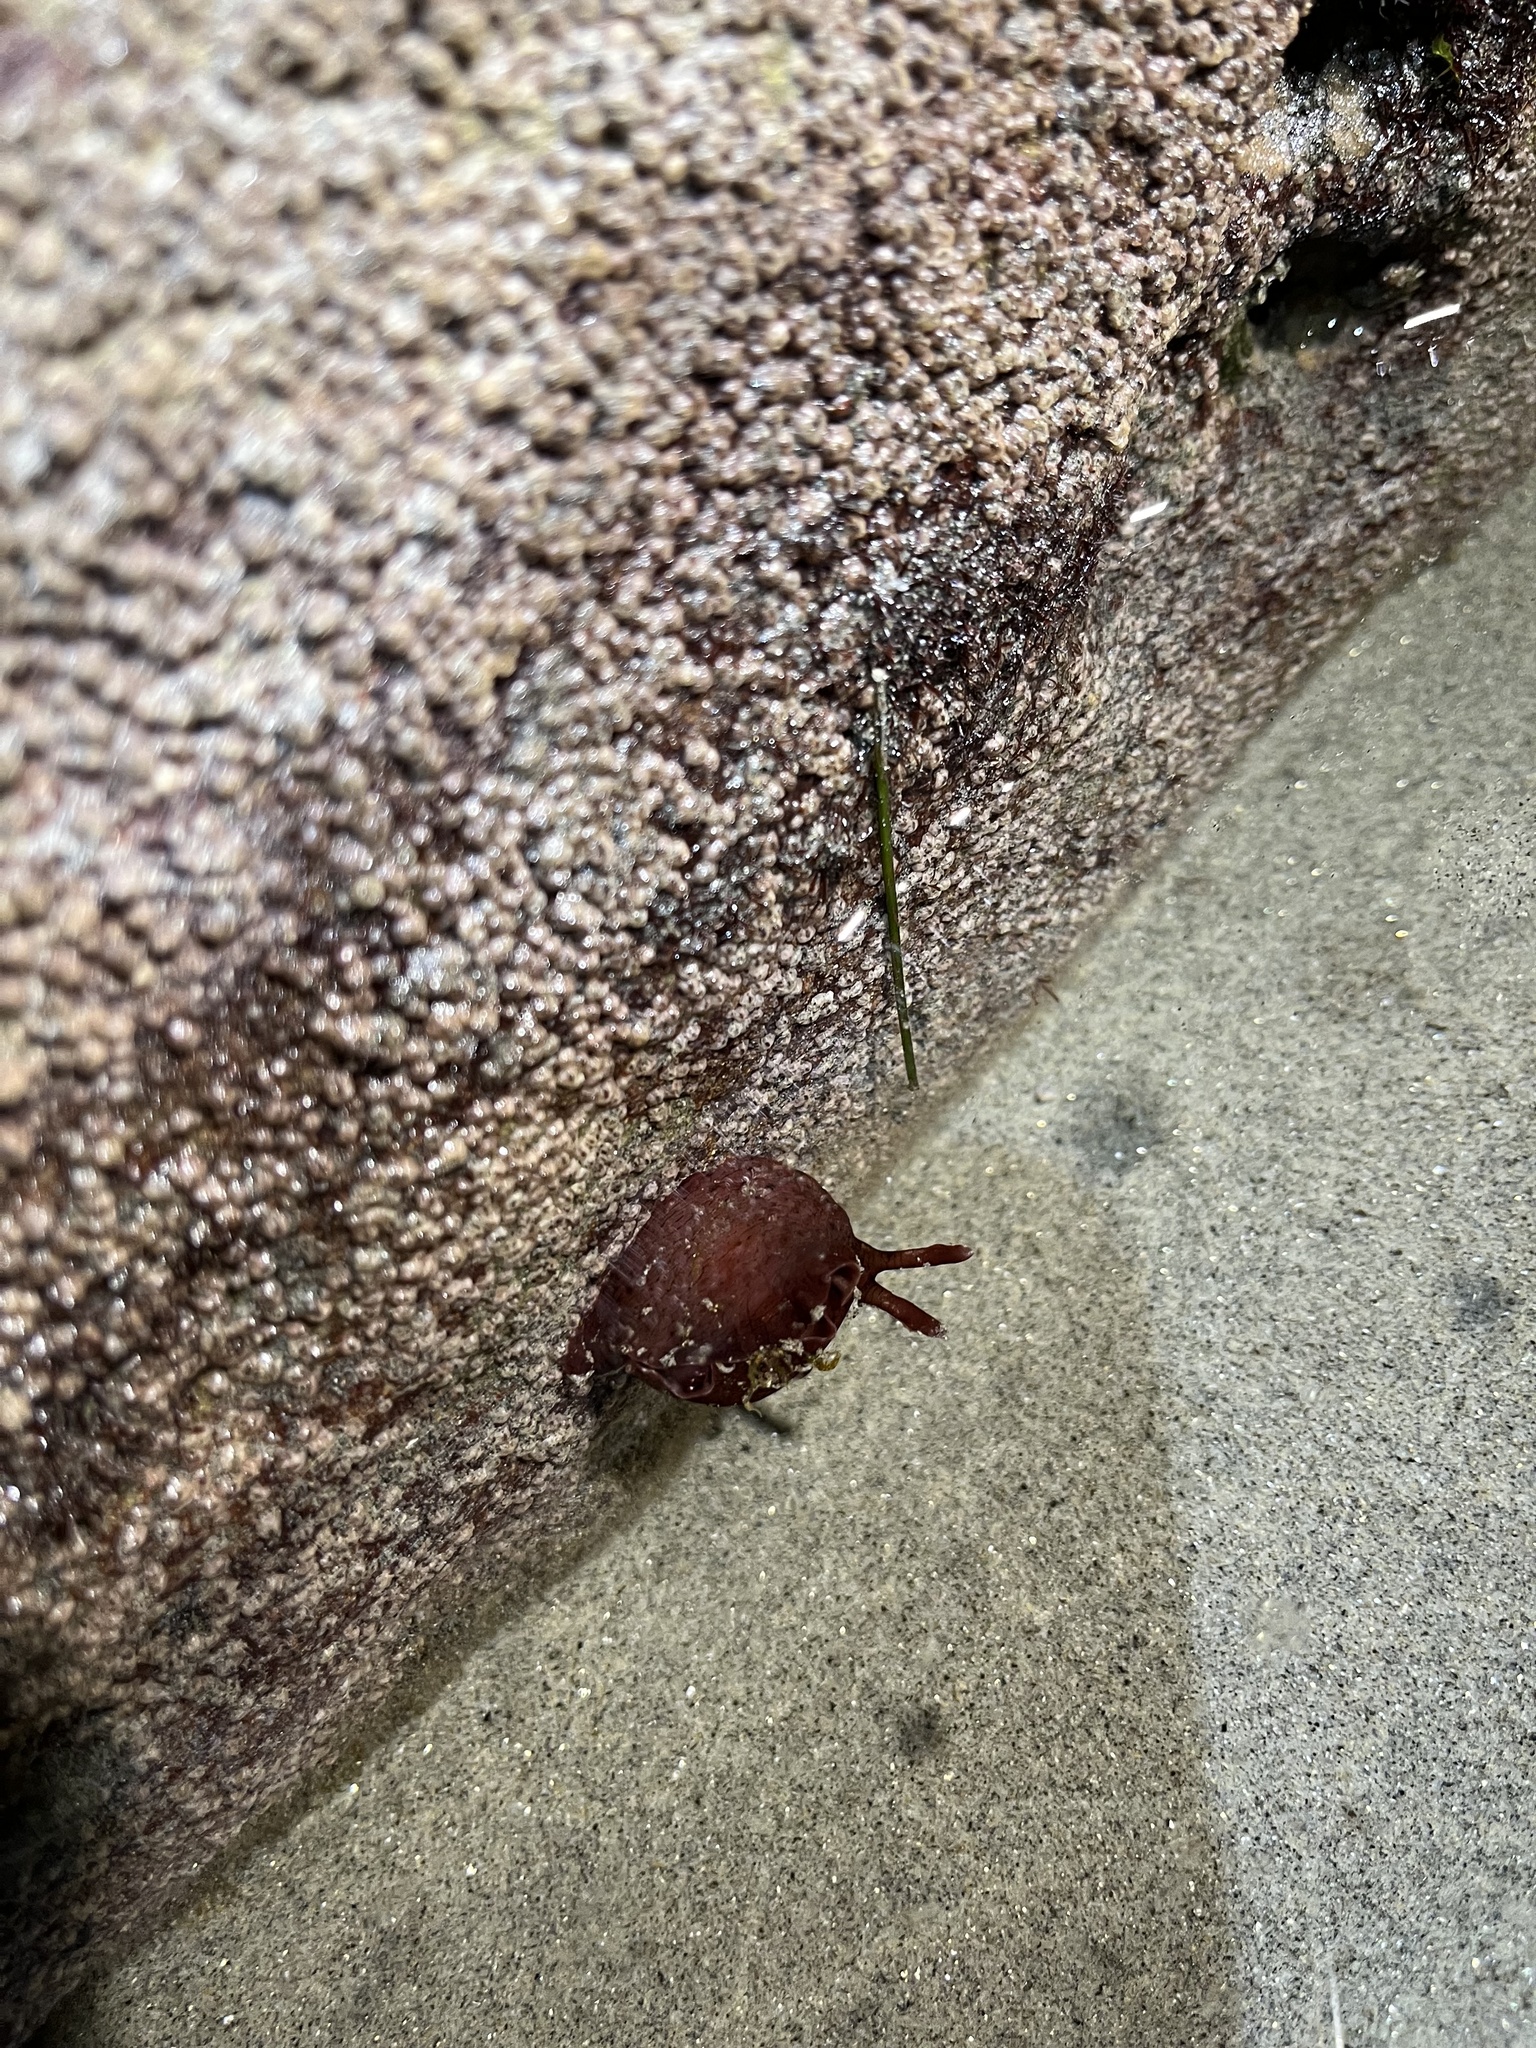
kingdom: Animalia
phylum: Mollusca
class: Gastropoda
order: Aplysiida
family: Aplysiidae
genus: Aplysia
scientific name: Aplysia californica
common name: California seahare
